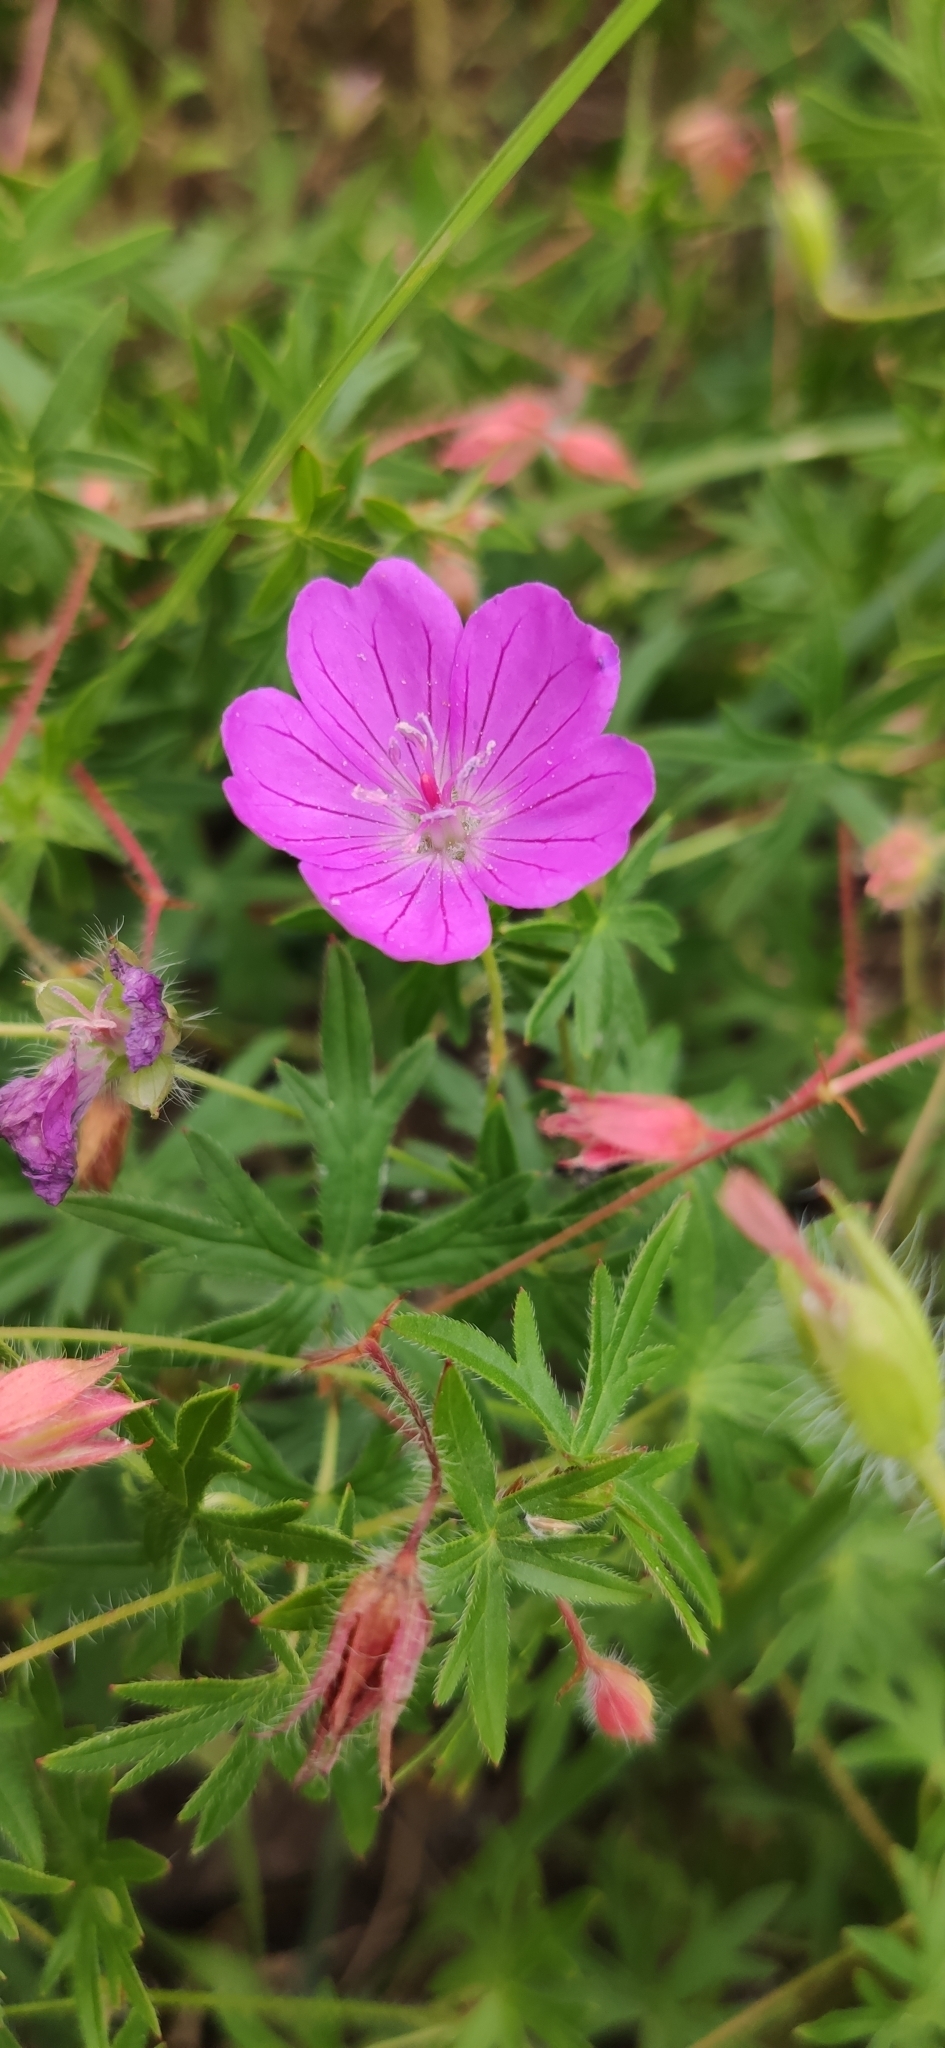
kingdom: Plantae
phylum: Tracheophyta
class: Magnoliopsida
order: Geraniales
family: Geraniaceae
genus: Geranium
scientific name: Geranium sanguineum
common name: Bloody crane's-bill
